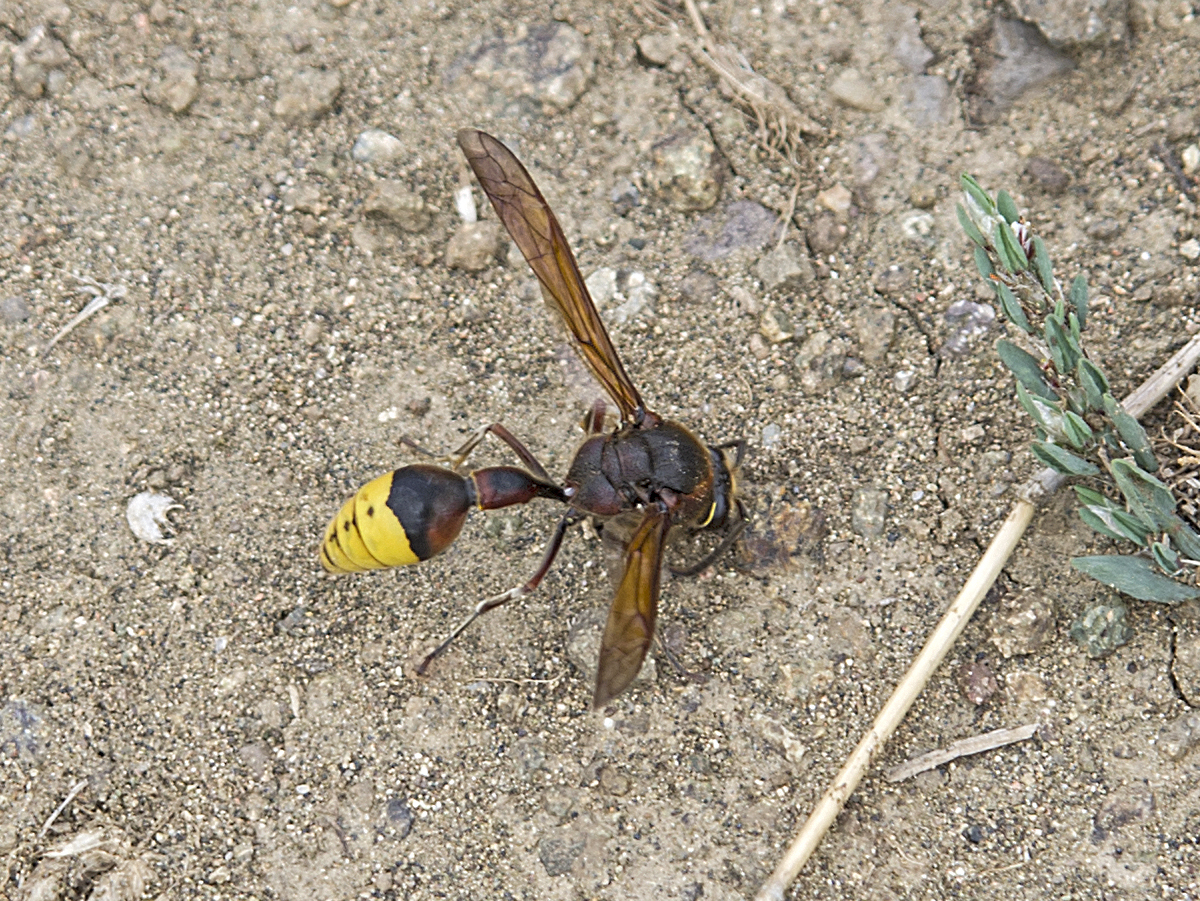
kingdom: Animalia
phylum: Arthropoda
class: Insecta
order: Hymenoptera
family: Eumenidae
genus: Delta
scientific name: Delta unguiculatum
